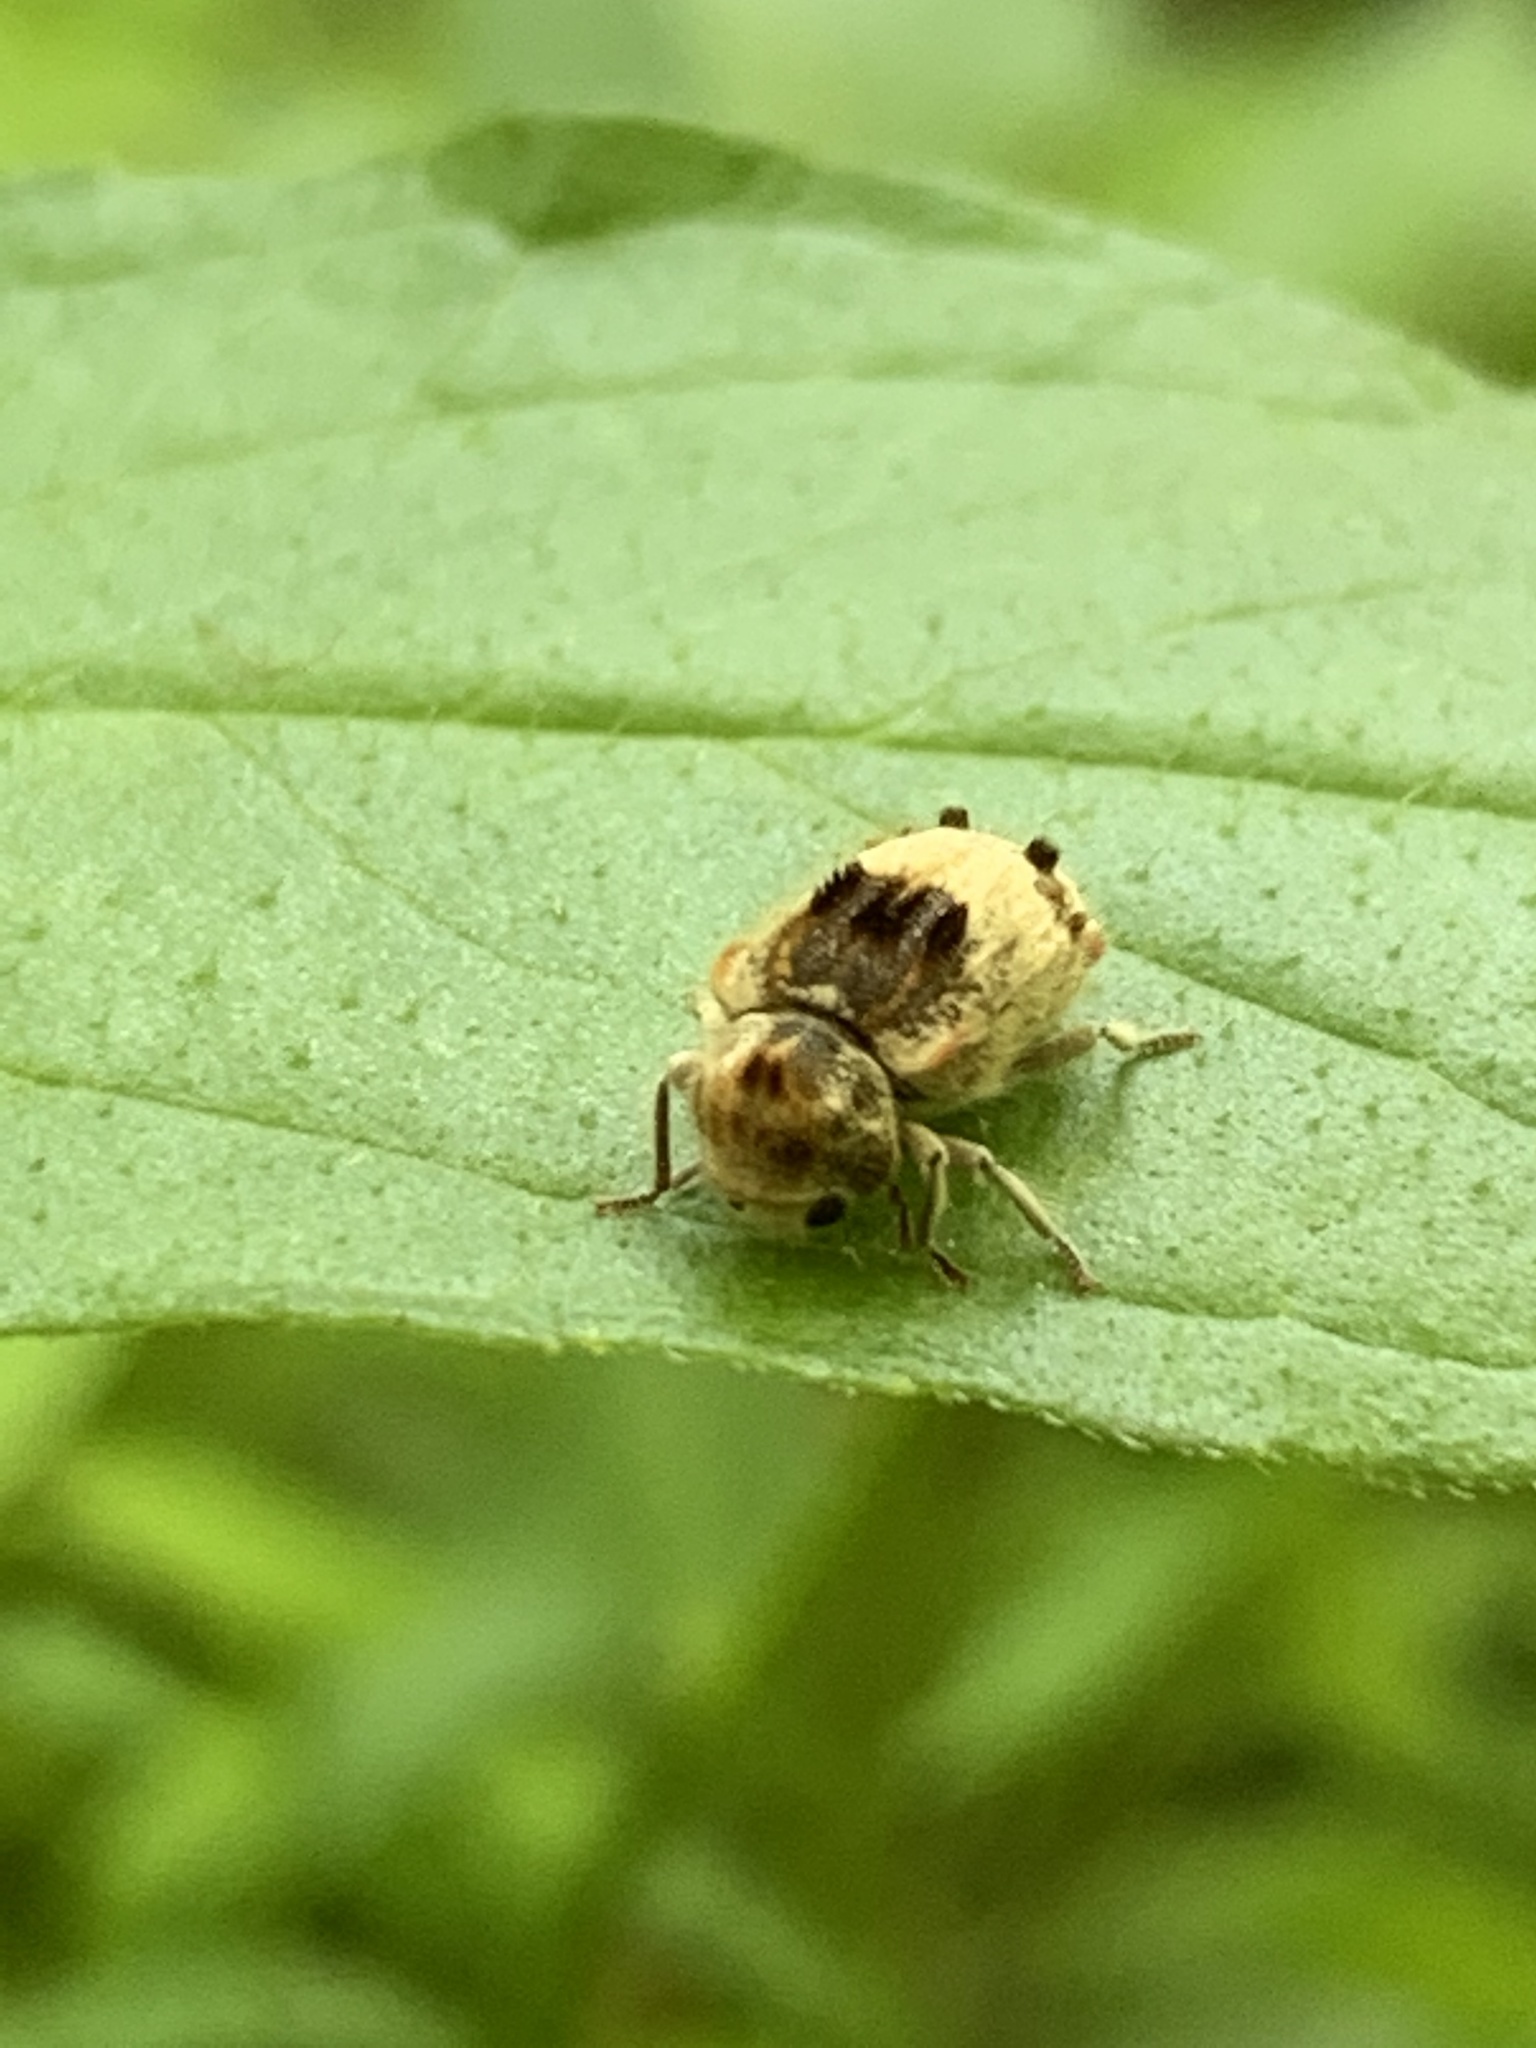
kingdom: Animalia
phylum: Arthropoda
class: Insecta
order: Coleoptera
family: Anobiidae
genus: Trichodesma
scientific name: Trichodesma gibbosa
